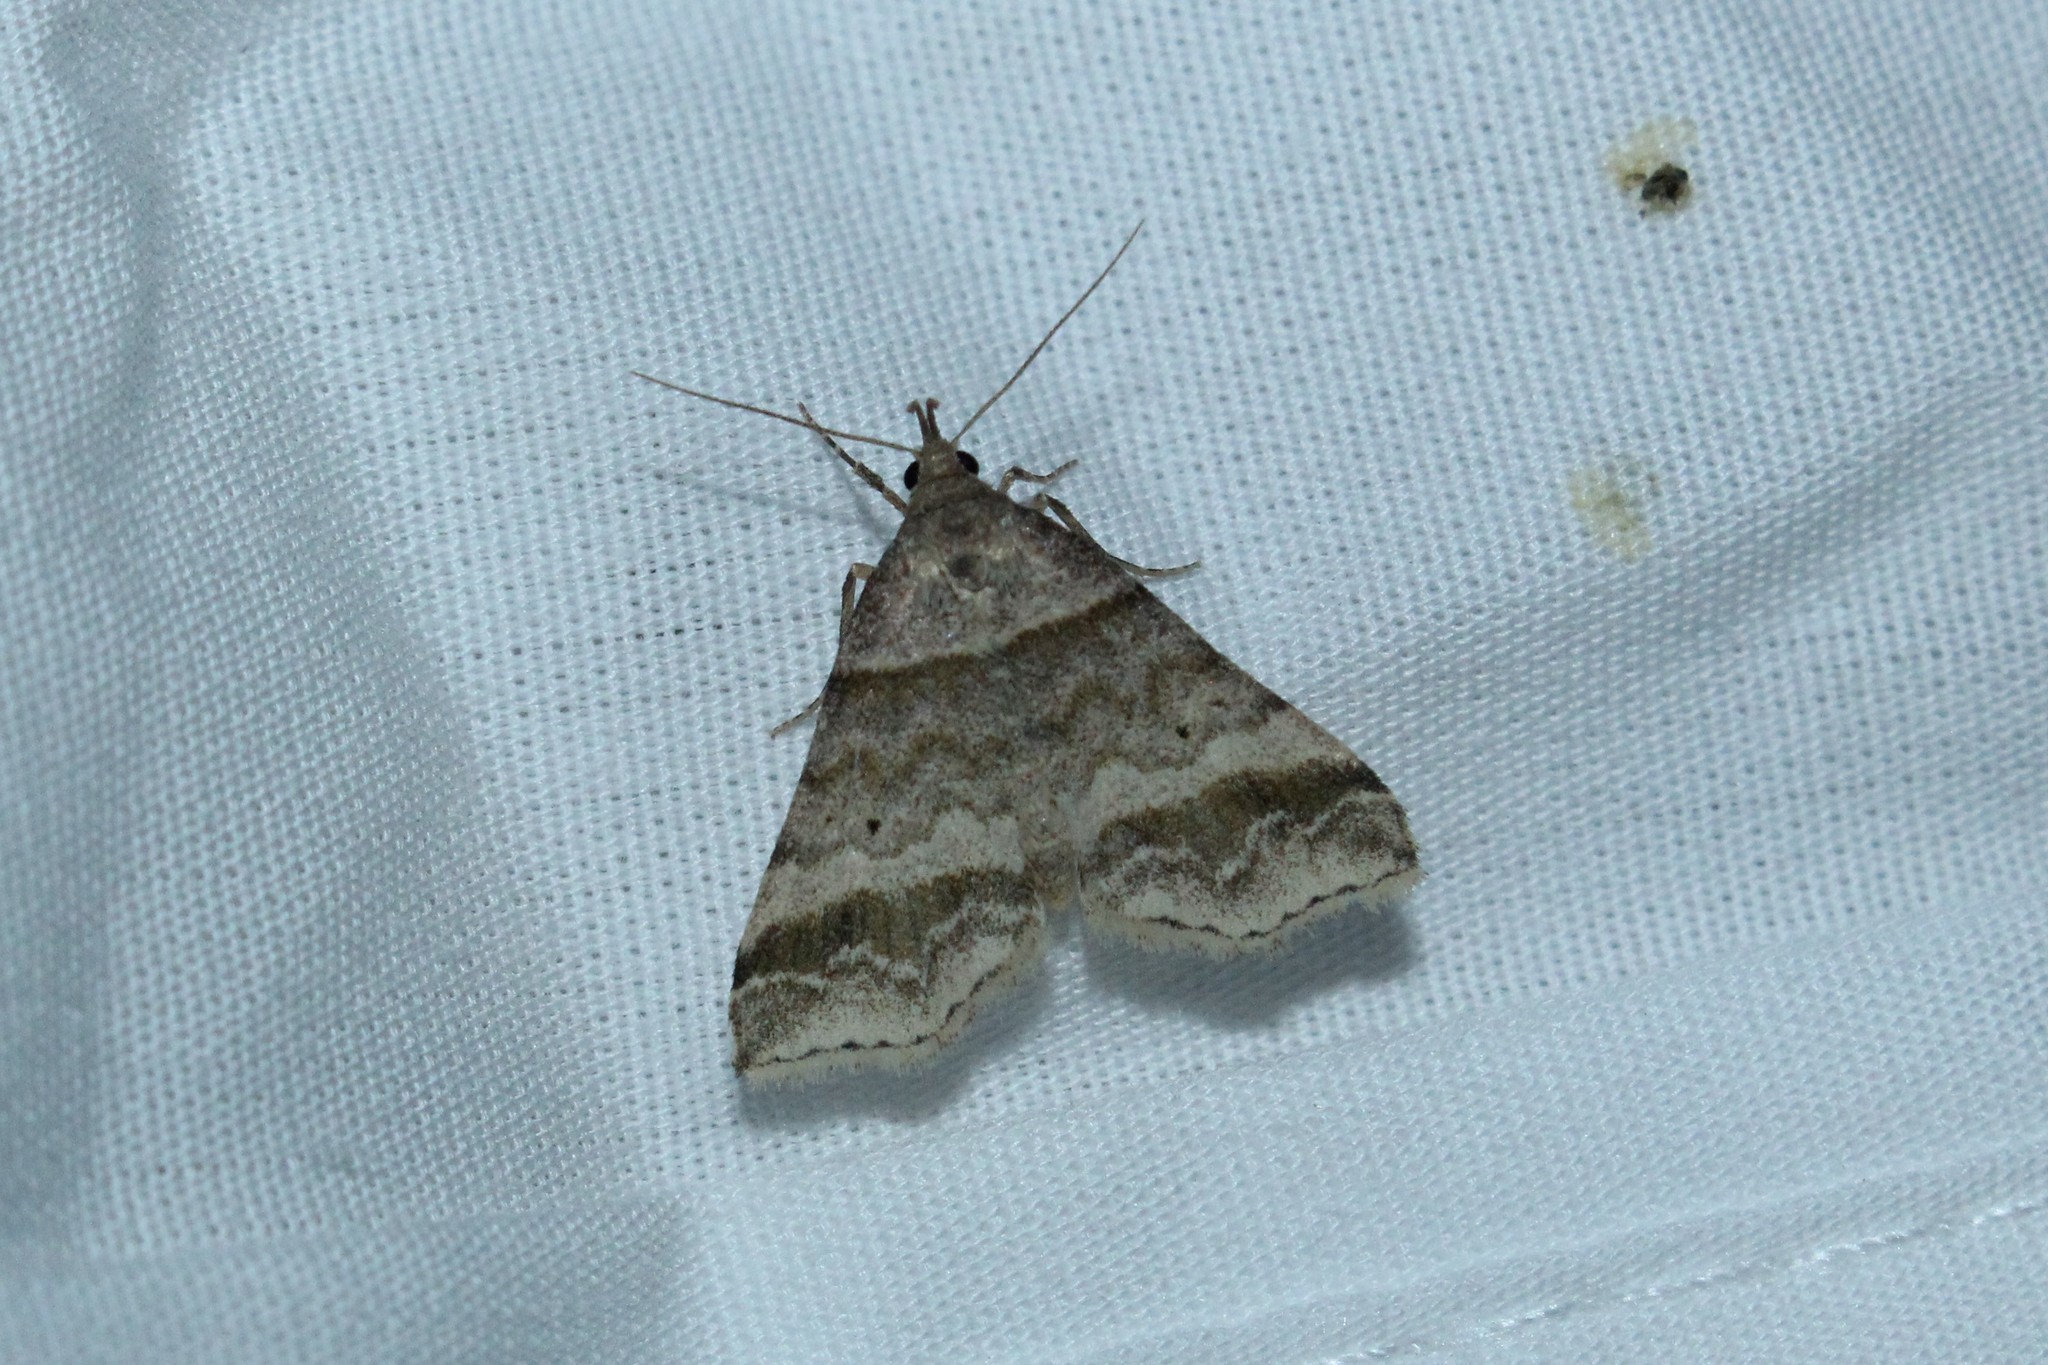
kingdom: Animalia
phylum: Arthropoda
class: Insecta
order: Lepidoptera
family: Erebidae
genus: Phaeolita
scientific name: Phaeolita pyramusalis
